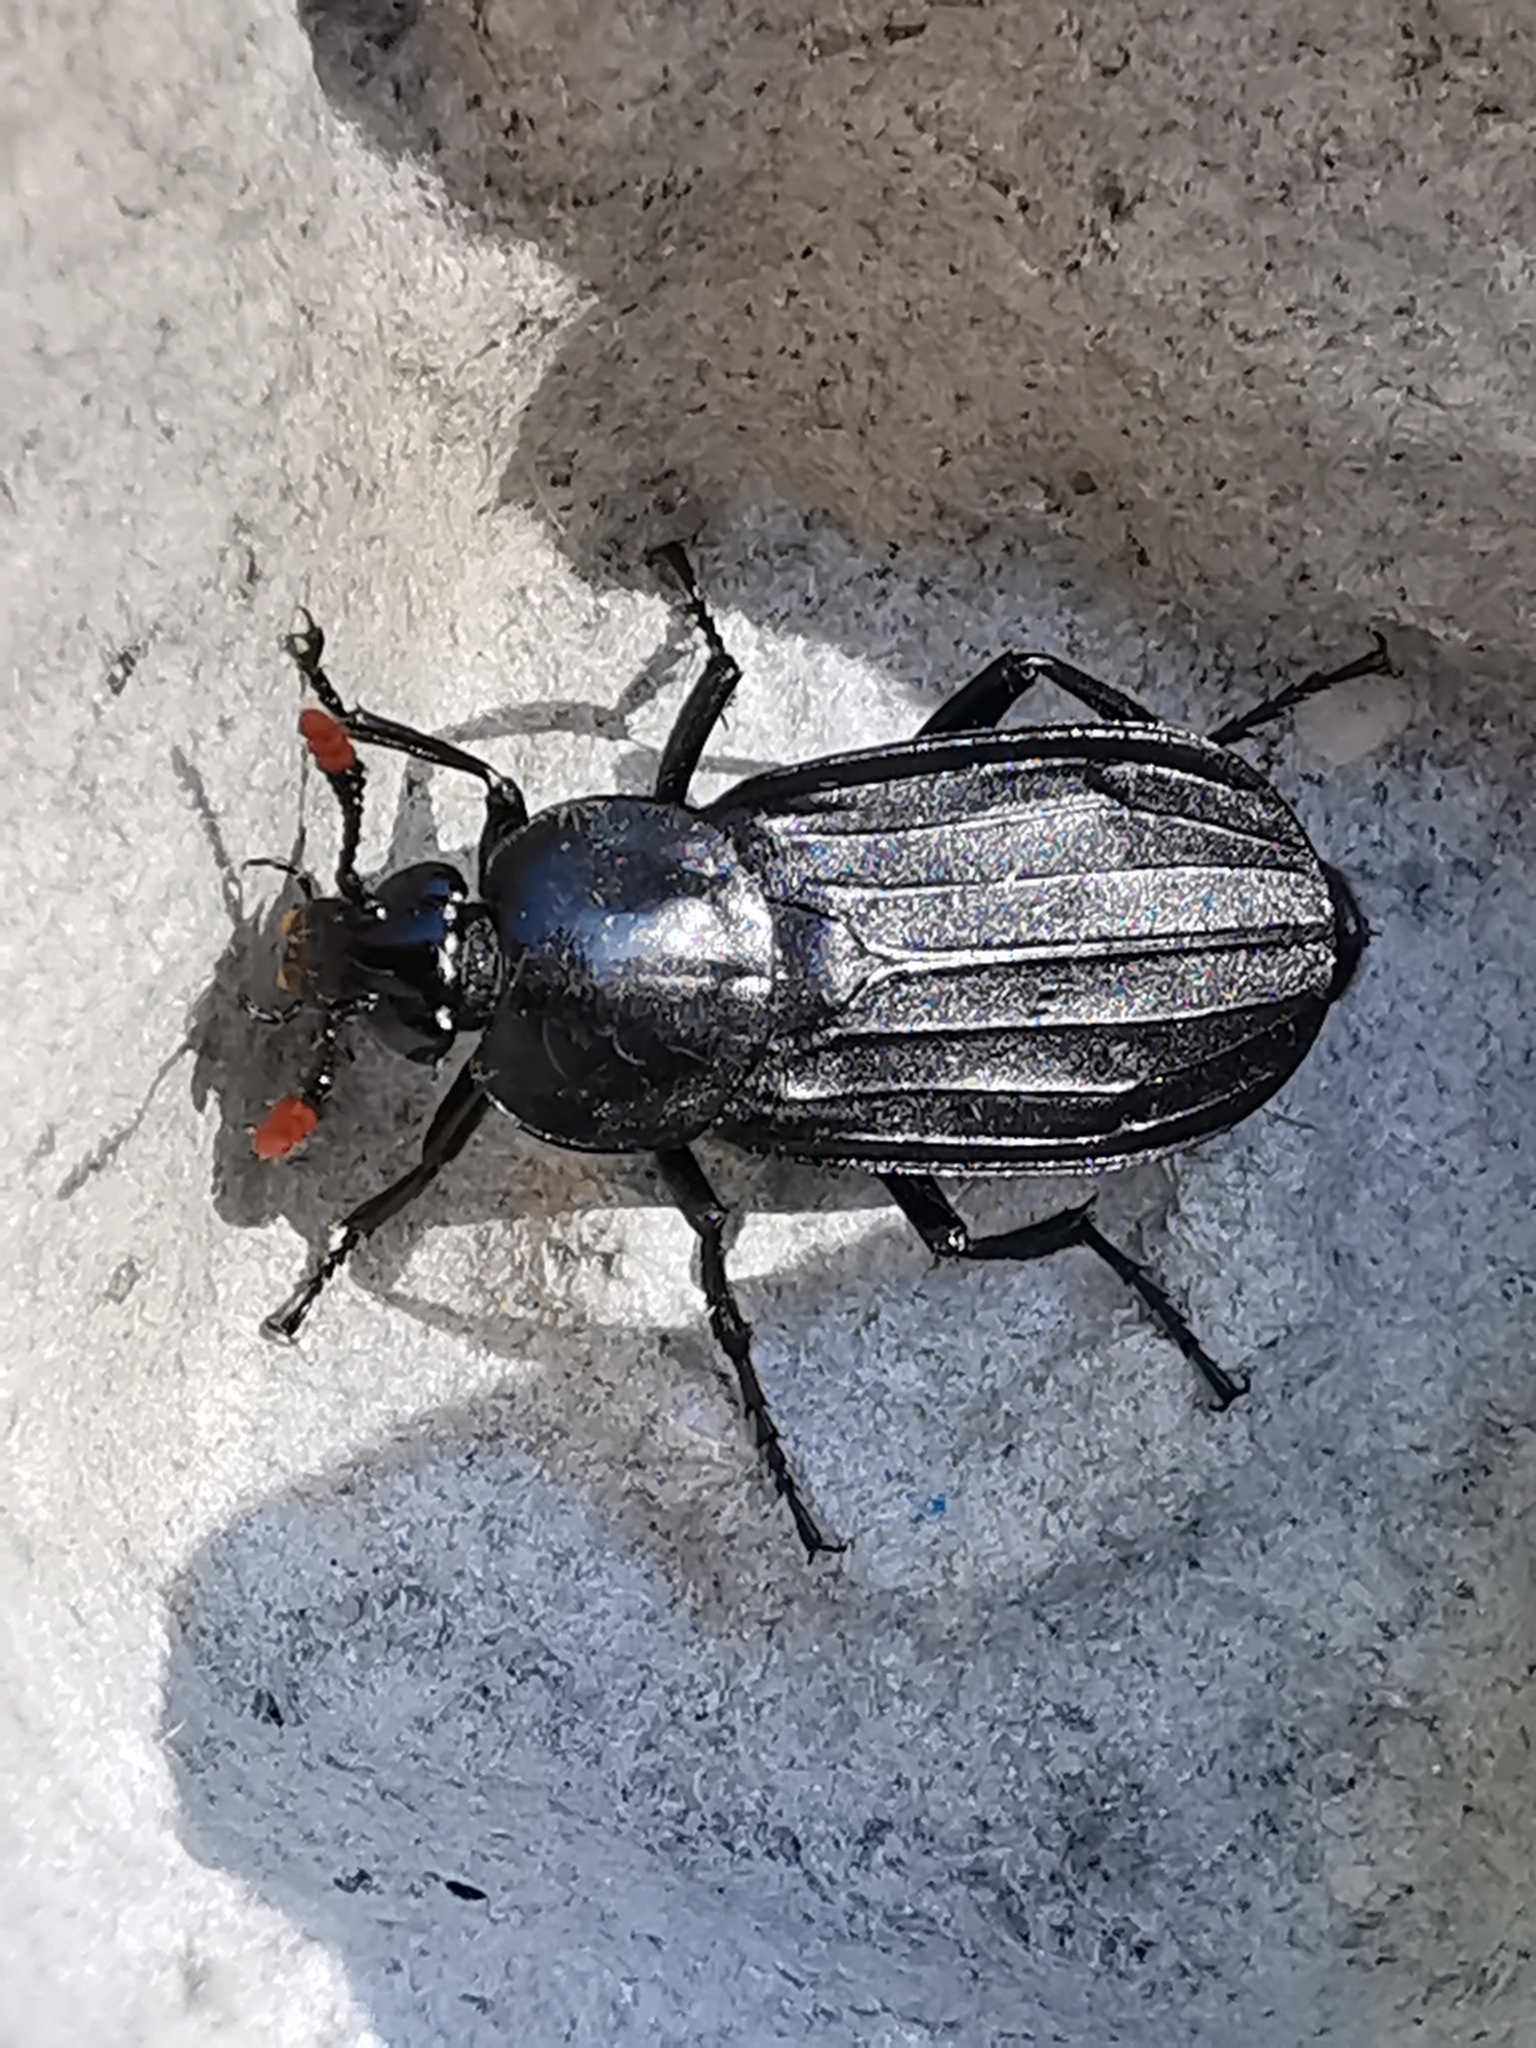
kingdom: Animalia
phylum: Arthropoda
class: Insecta
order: Coleoptera
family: Staphylinidae
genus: Necrodes
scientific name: Necrodes littoralis
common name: Shore sexton beetle
